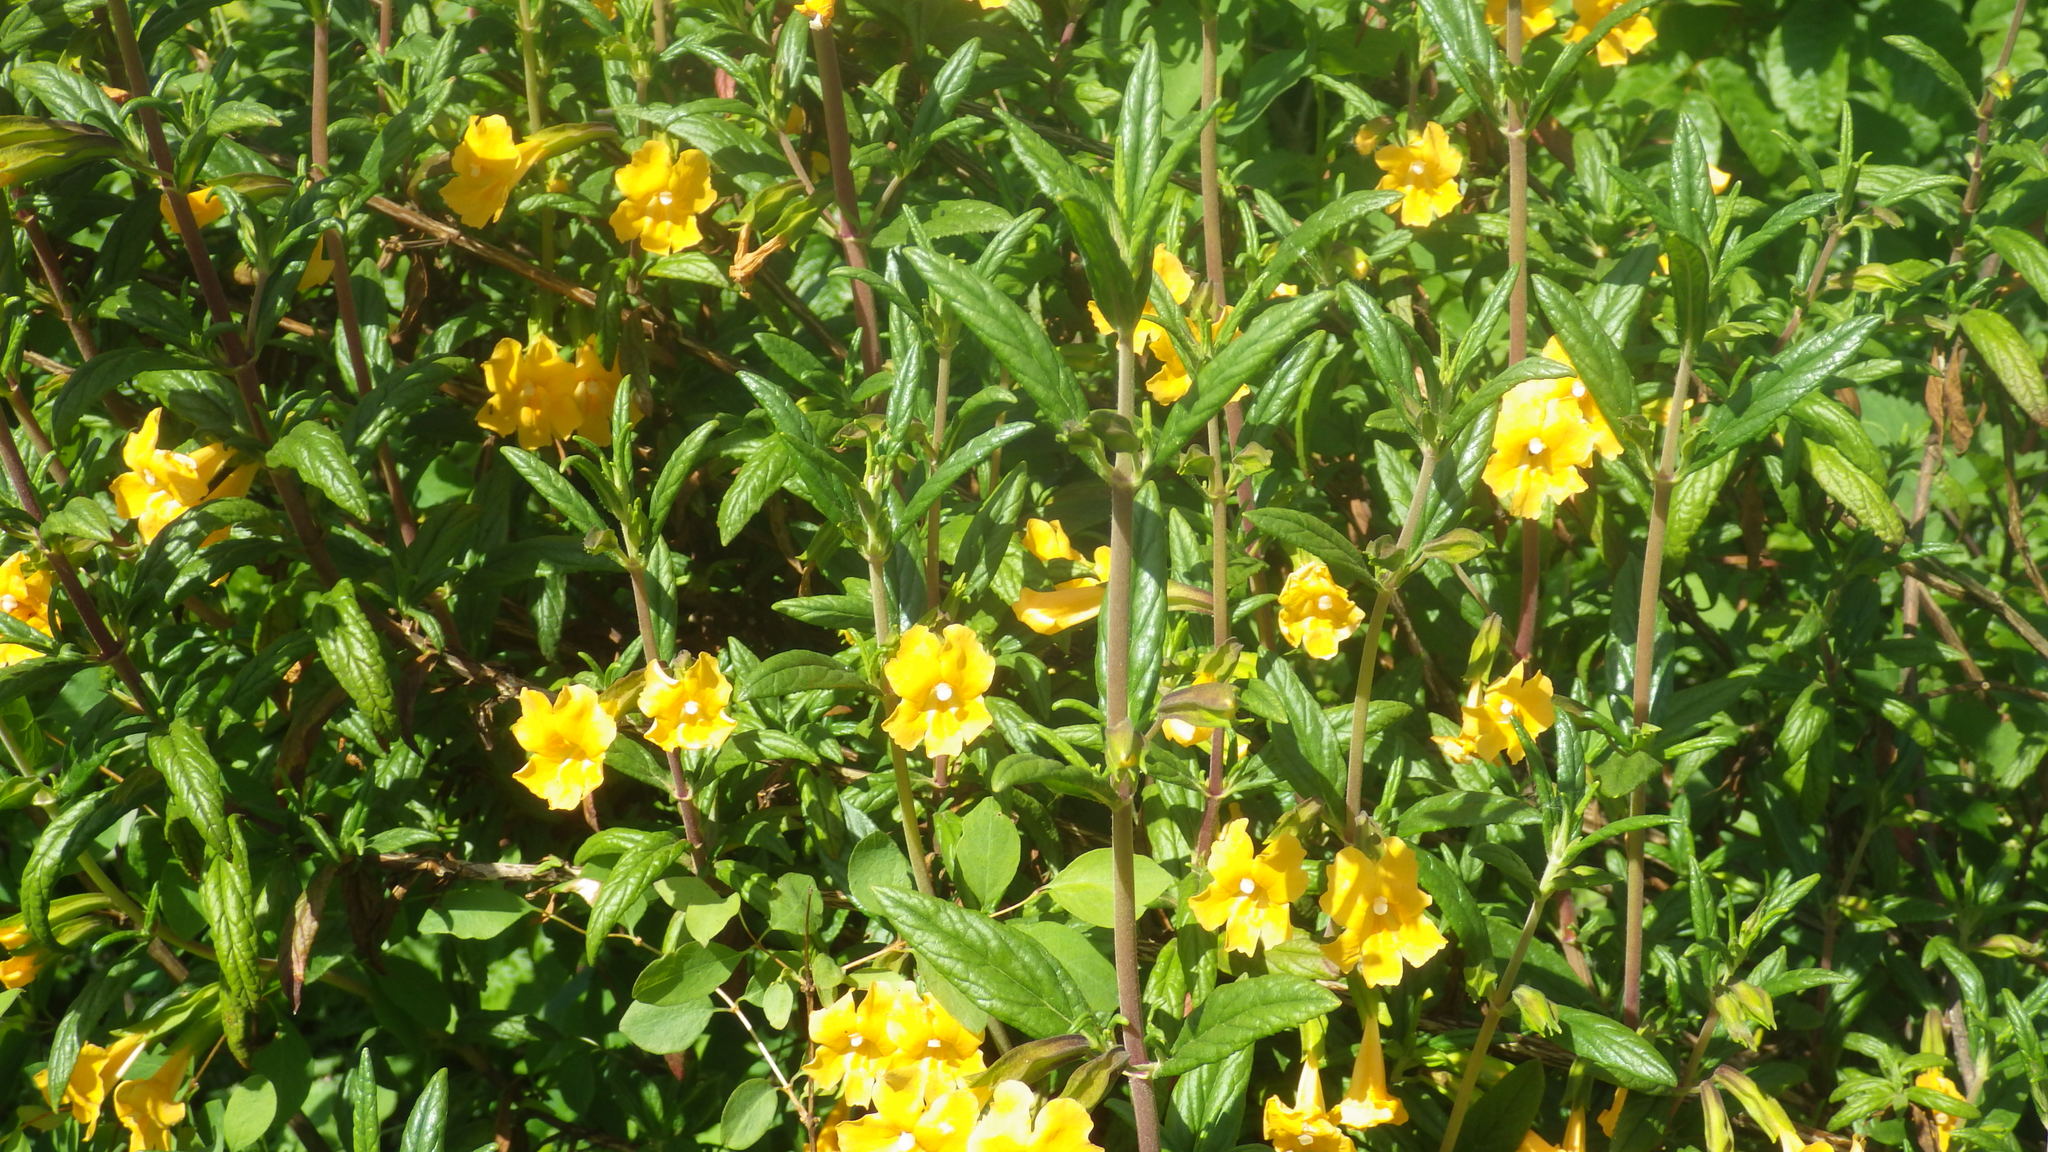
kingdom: Plantae
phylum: Tracheophyta
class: Magnoliopsida
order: Lamiales
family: Phrymaceae
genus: Diplacus
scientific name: Diplacus aurantiacus
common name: Bush monkey-flower
